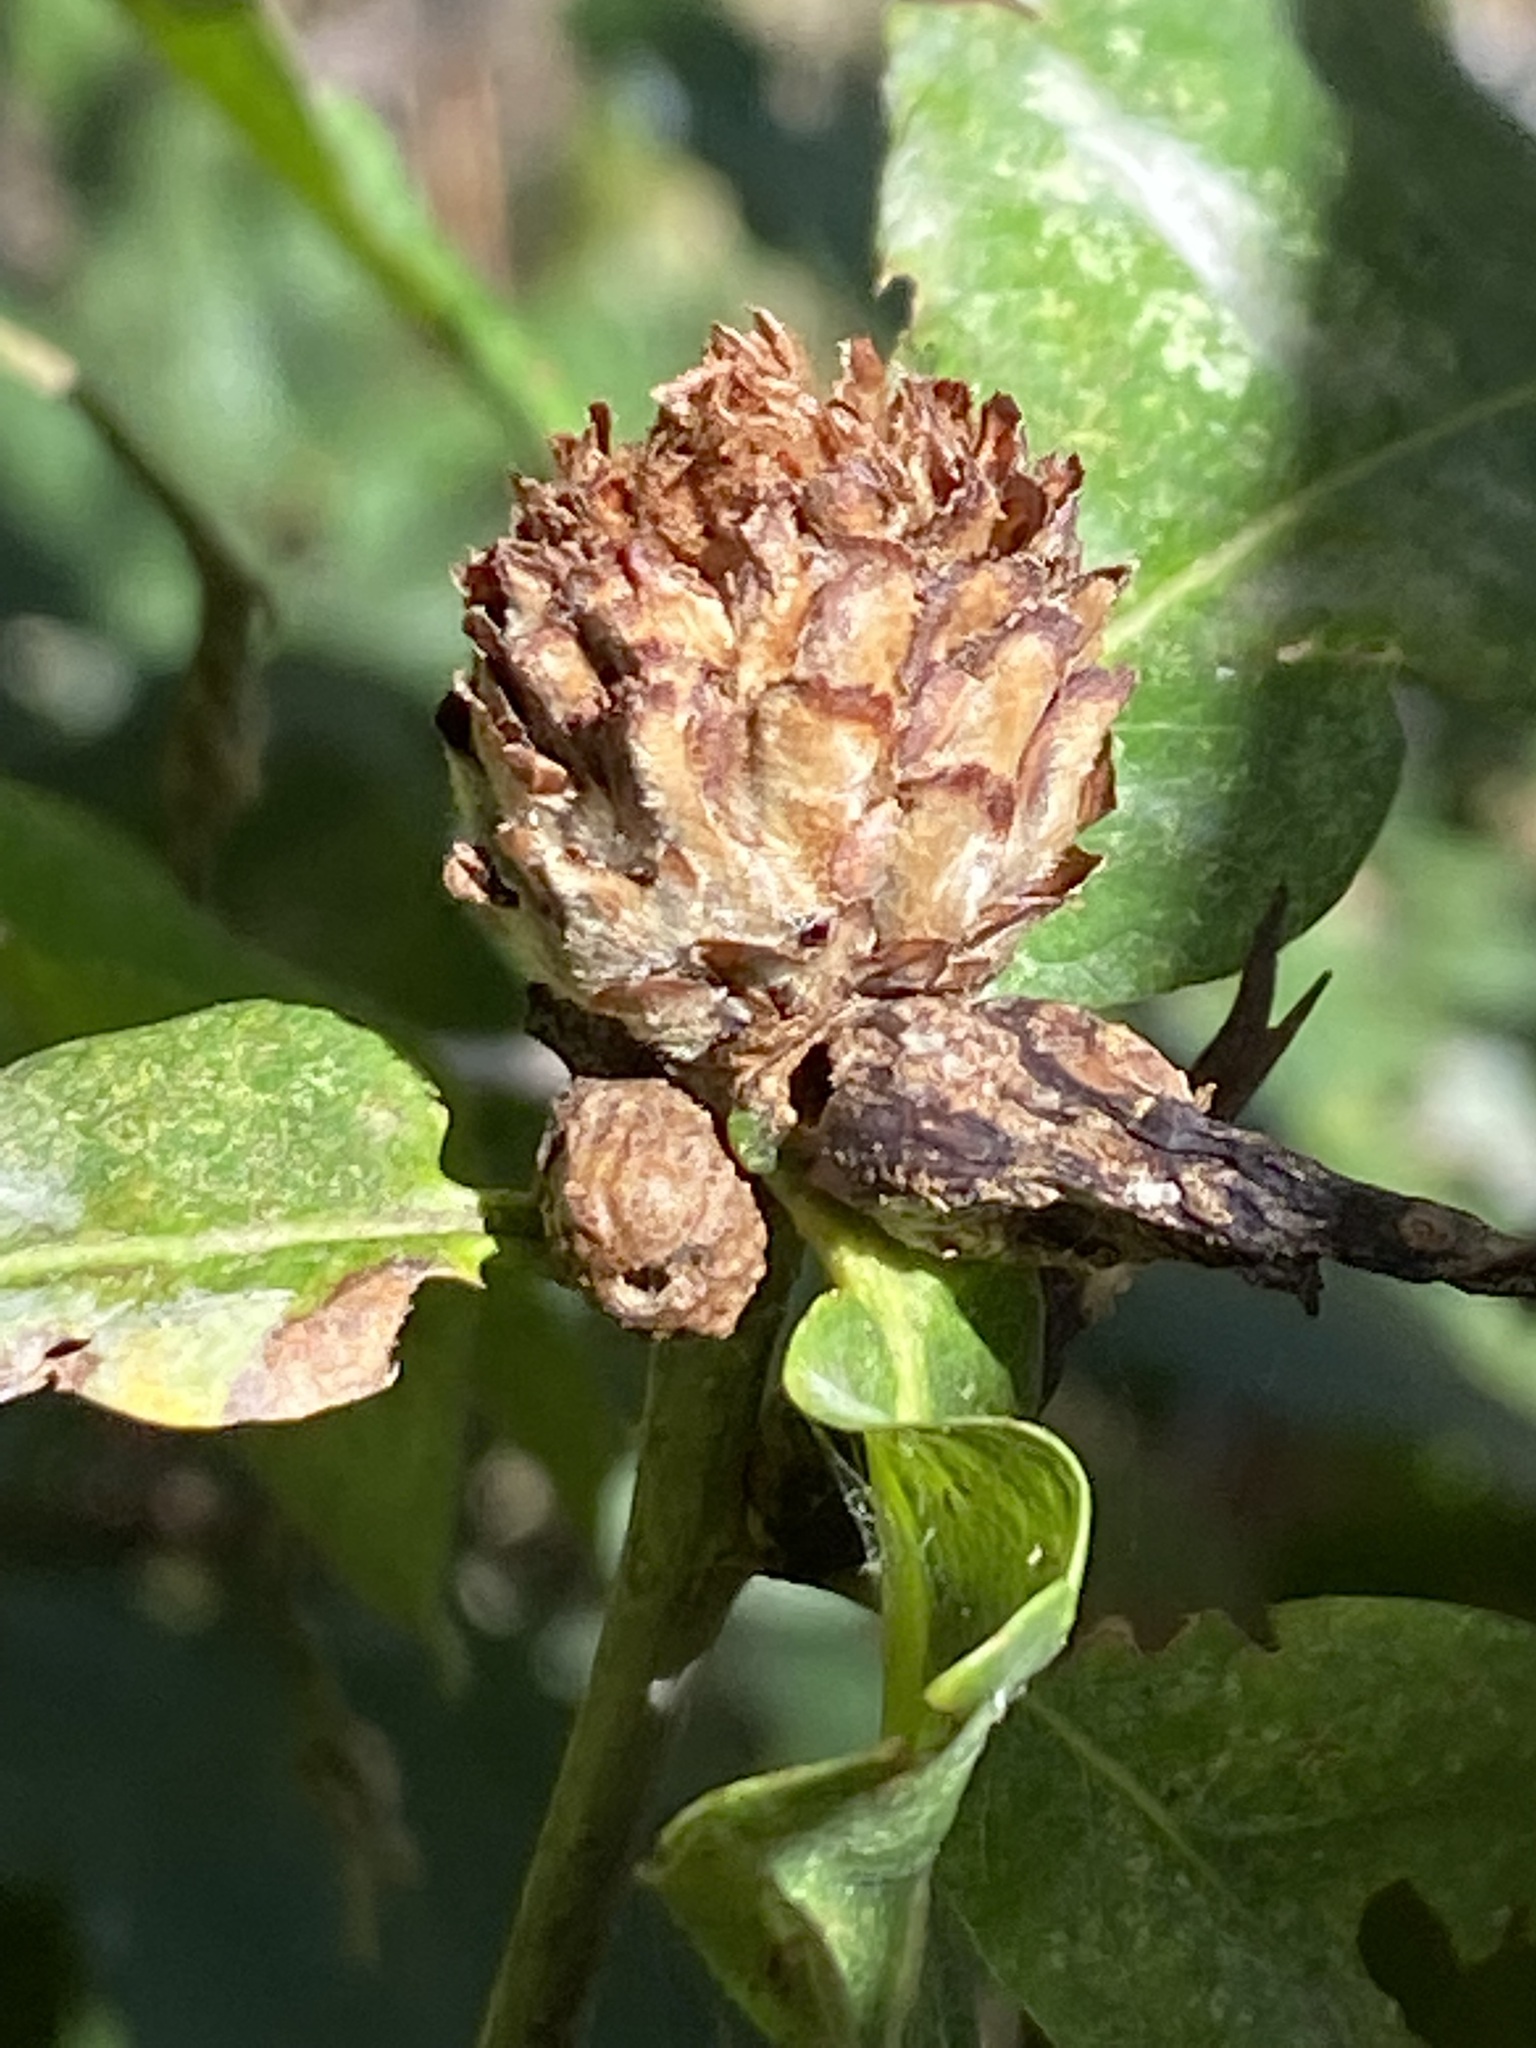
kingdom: Animalia
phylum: Arthropoda
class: Insecta
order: Hymenoptera
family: Cynipidae
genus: Andricus
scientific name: Andricus foecundatrix
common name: Artichoke gall
